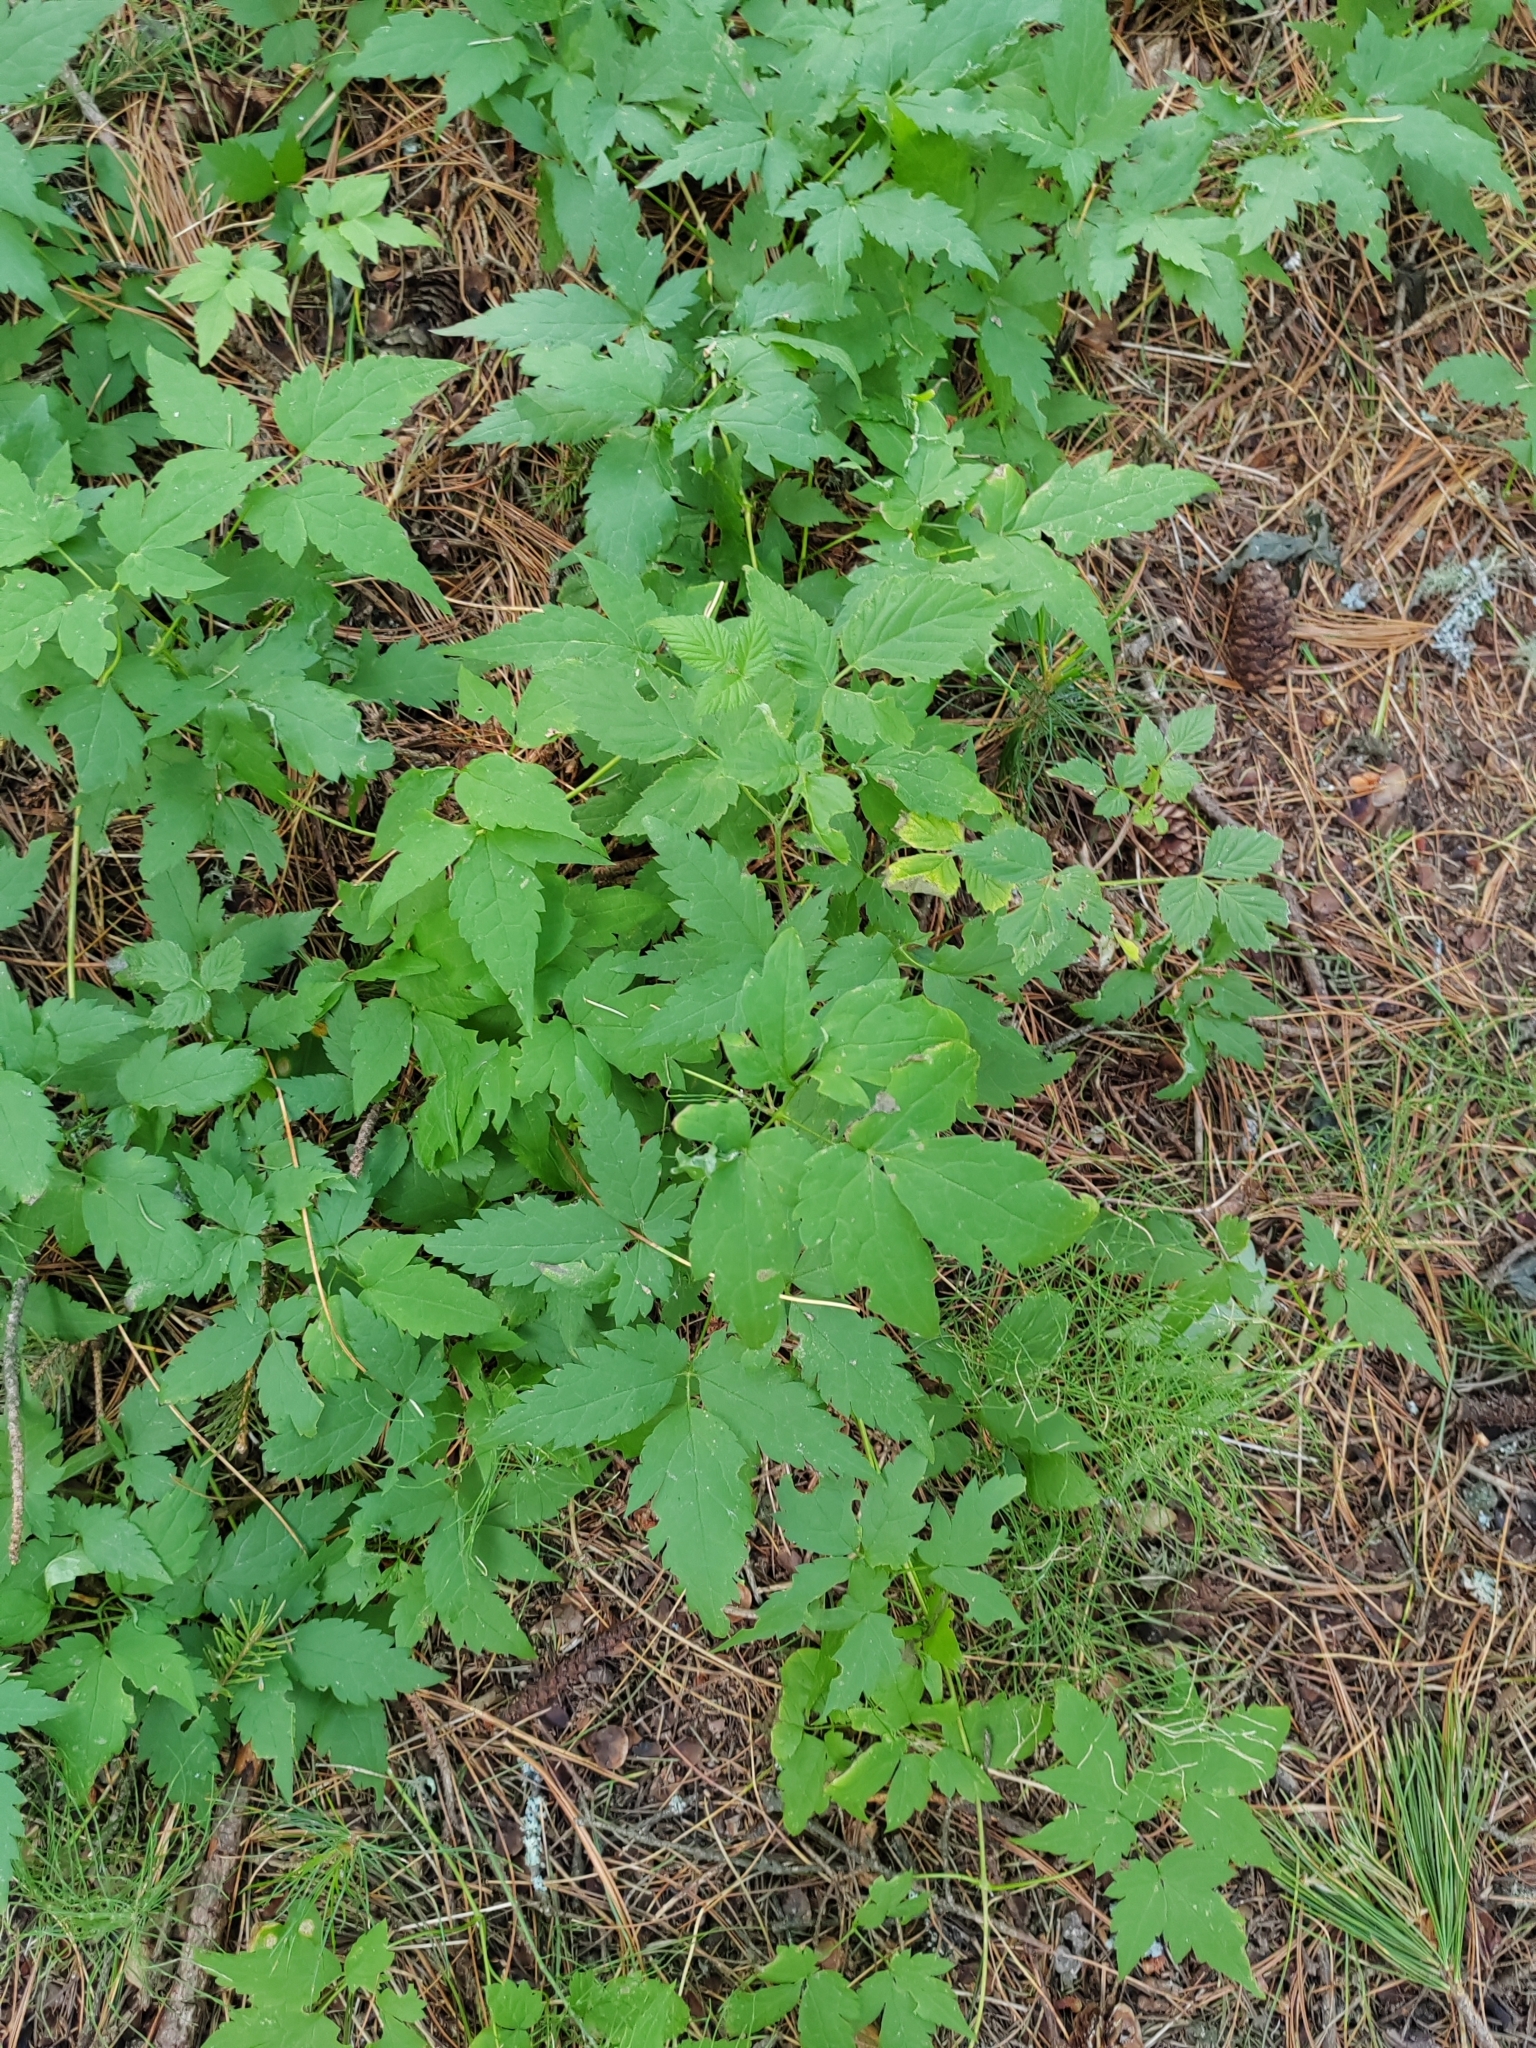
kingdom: Plantae
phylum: Tracheophyta
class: Magnoliopsida
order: Ranunculales
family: Ranunculaceae
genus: Clematis
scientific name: Clematis sibirica
